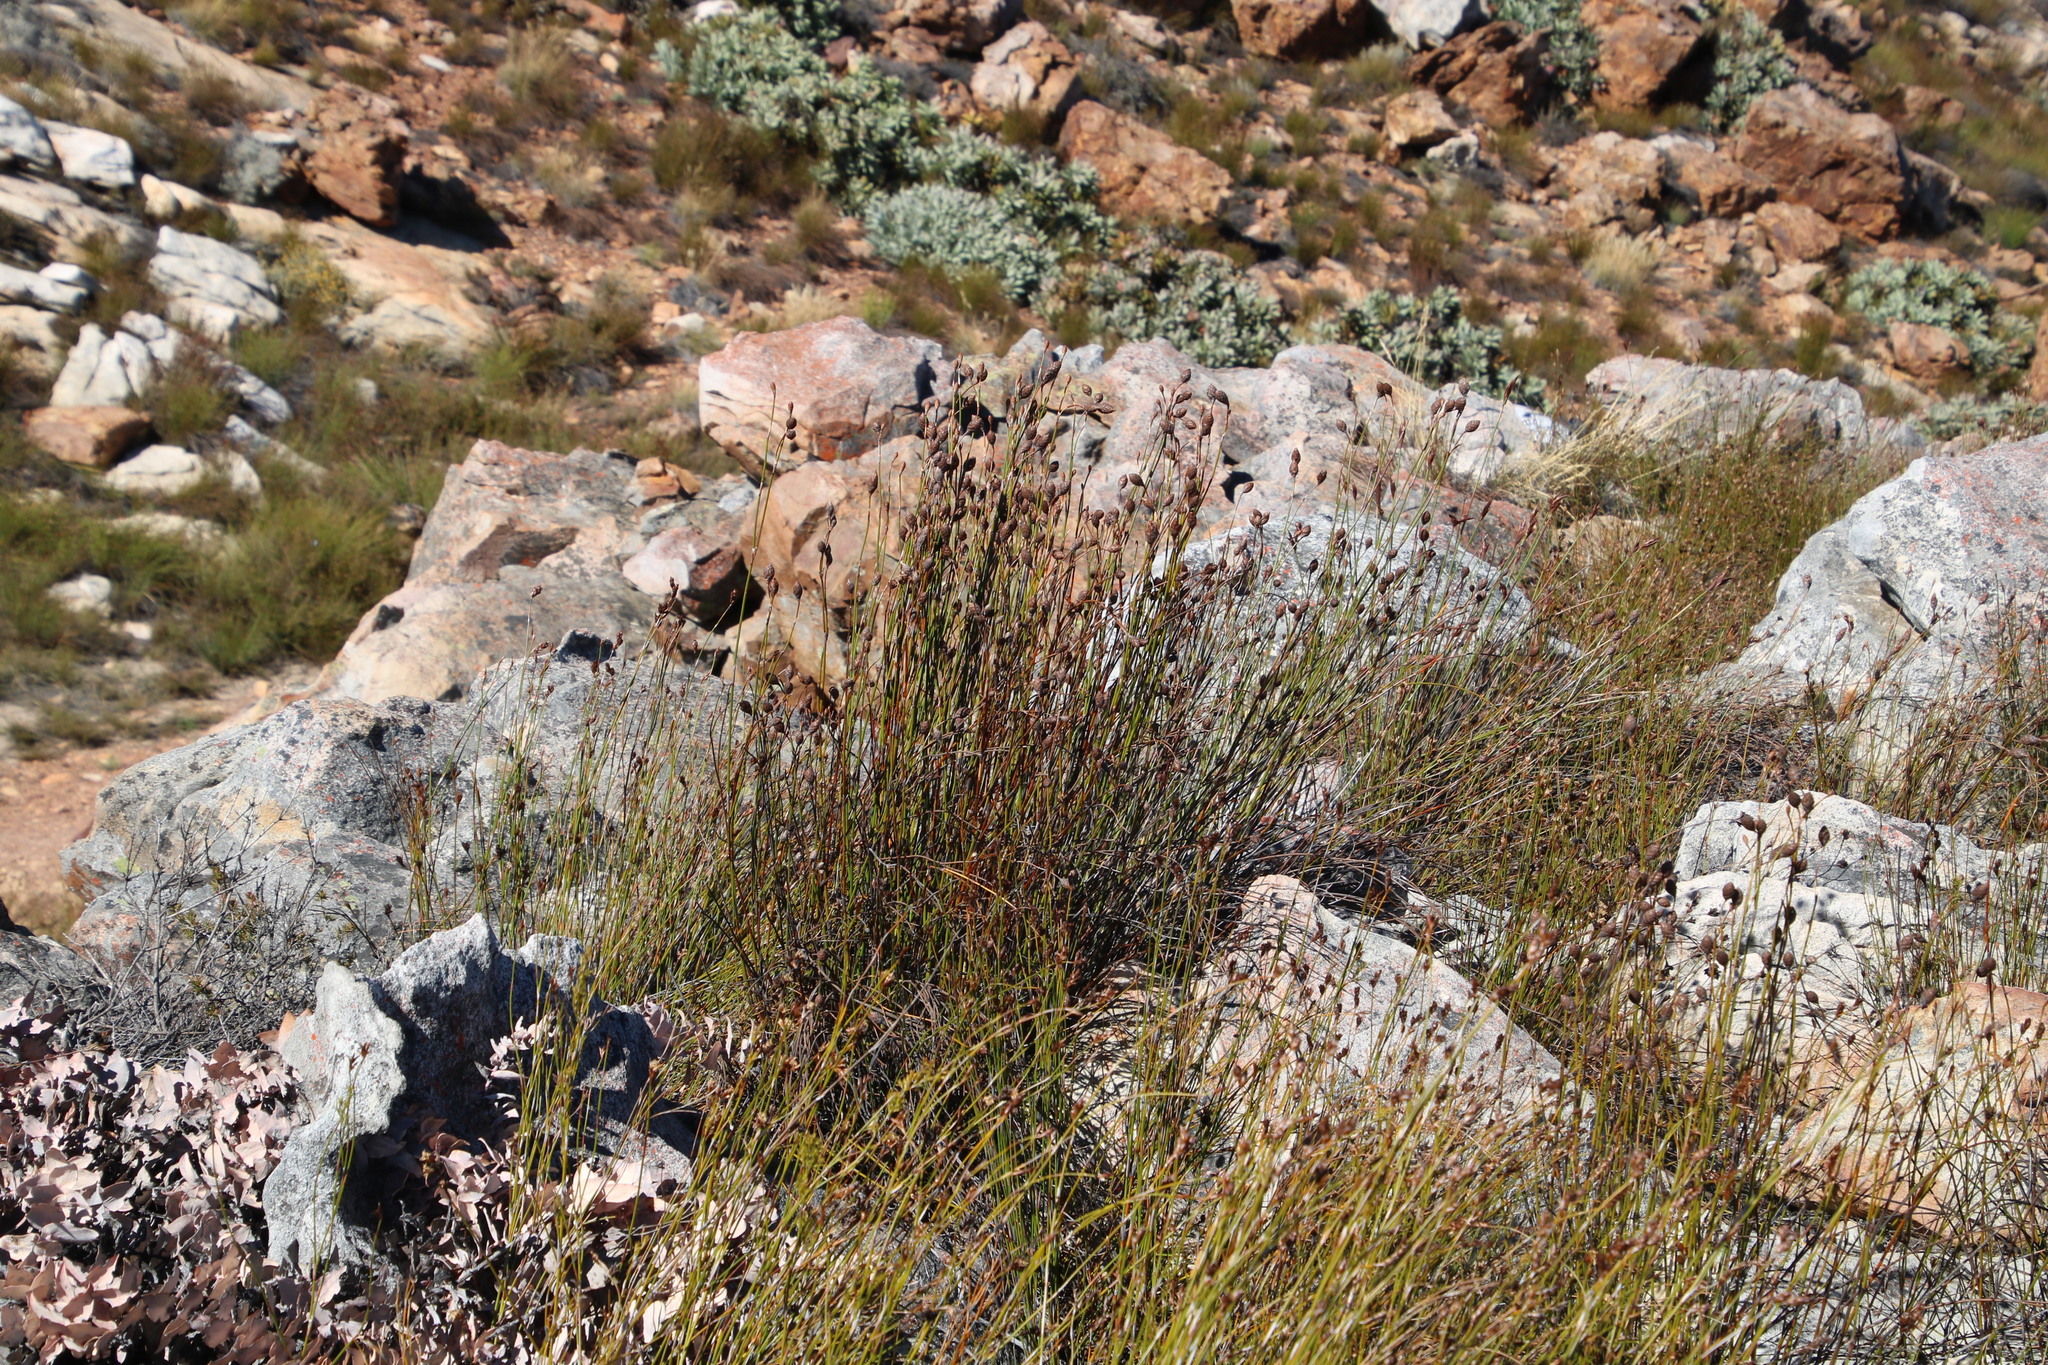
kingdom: Plantae
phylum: Tracheophyta
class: Liliopsida
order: Poales
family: Restionaceae
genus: Cannomois
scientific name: Cannomois primosii
